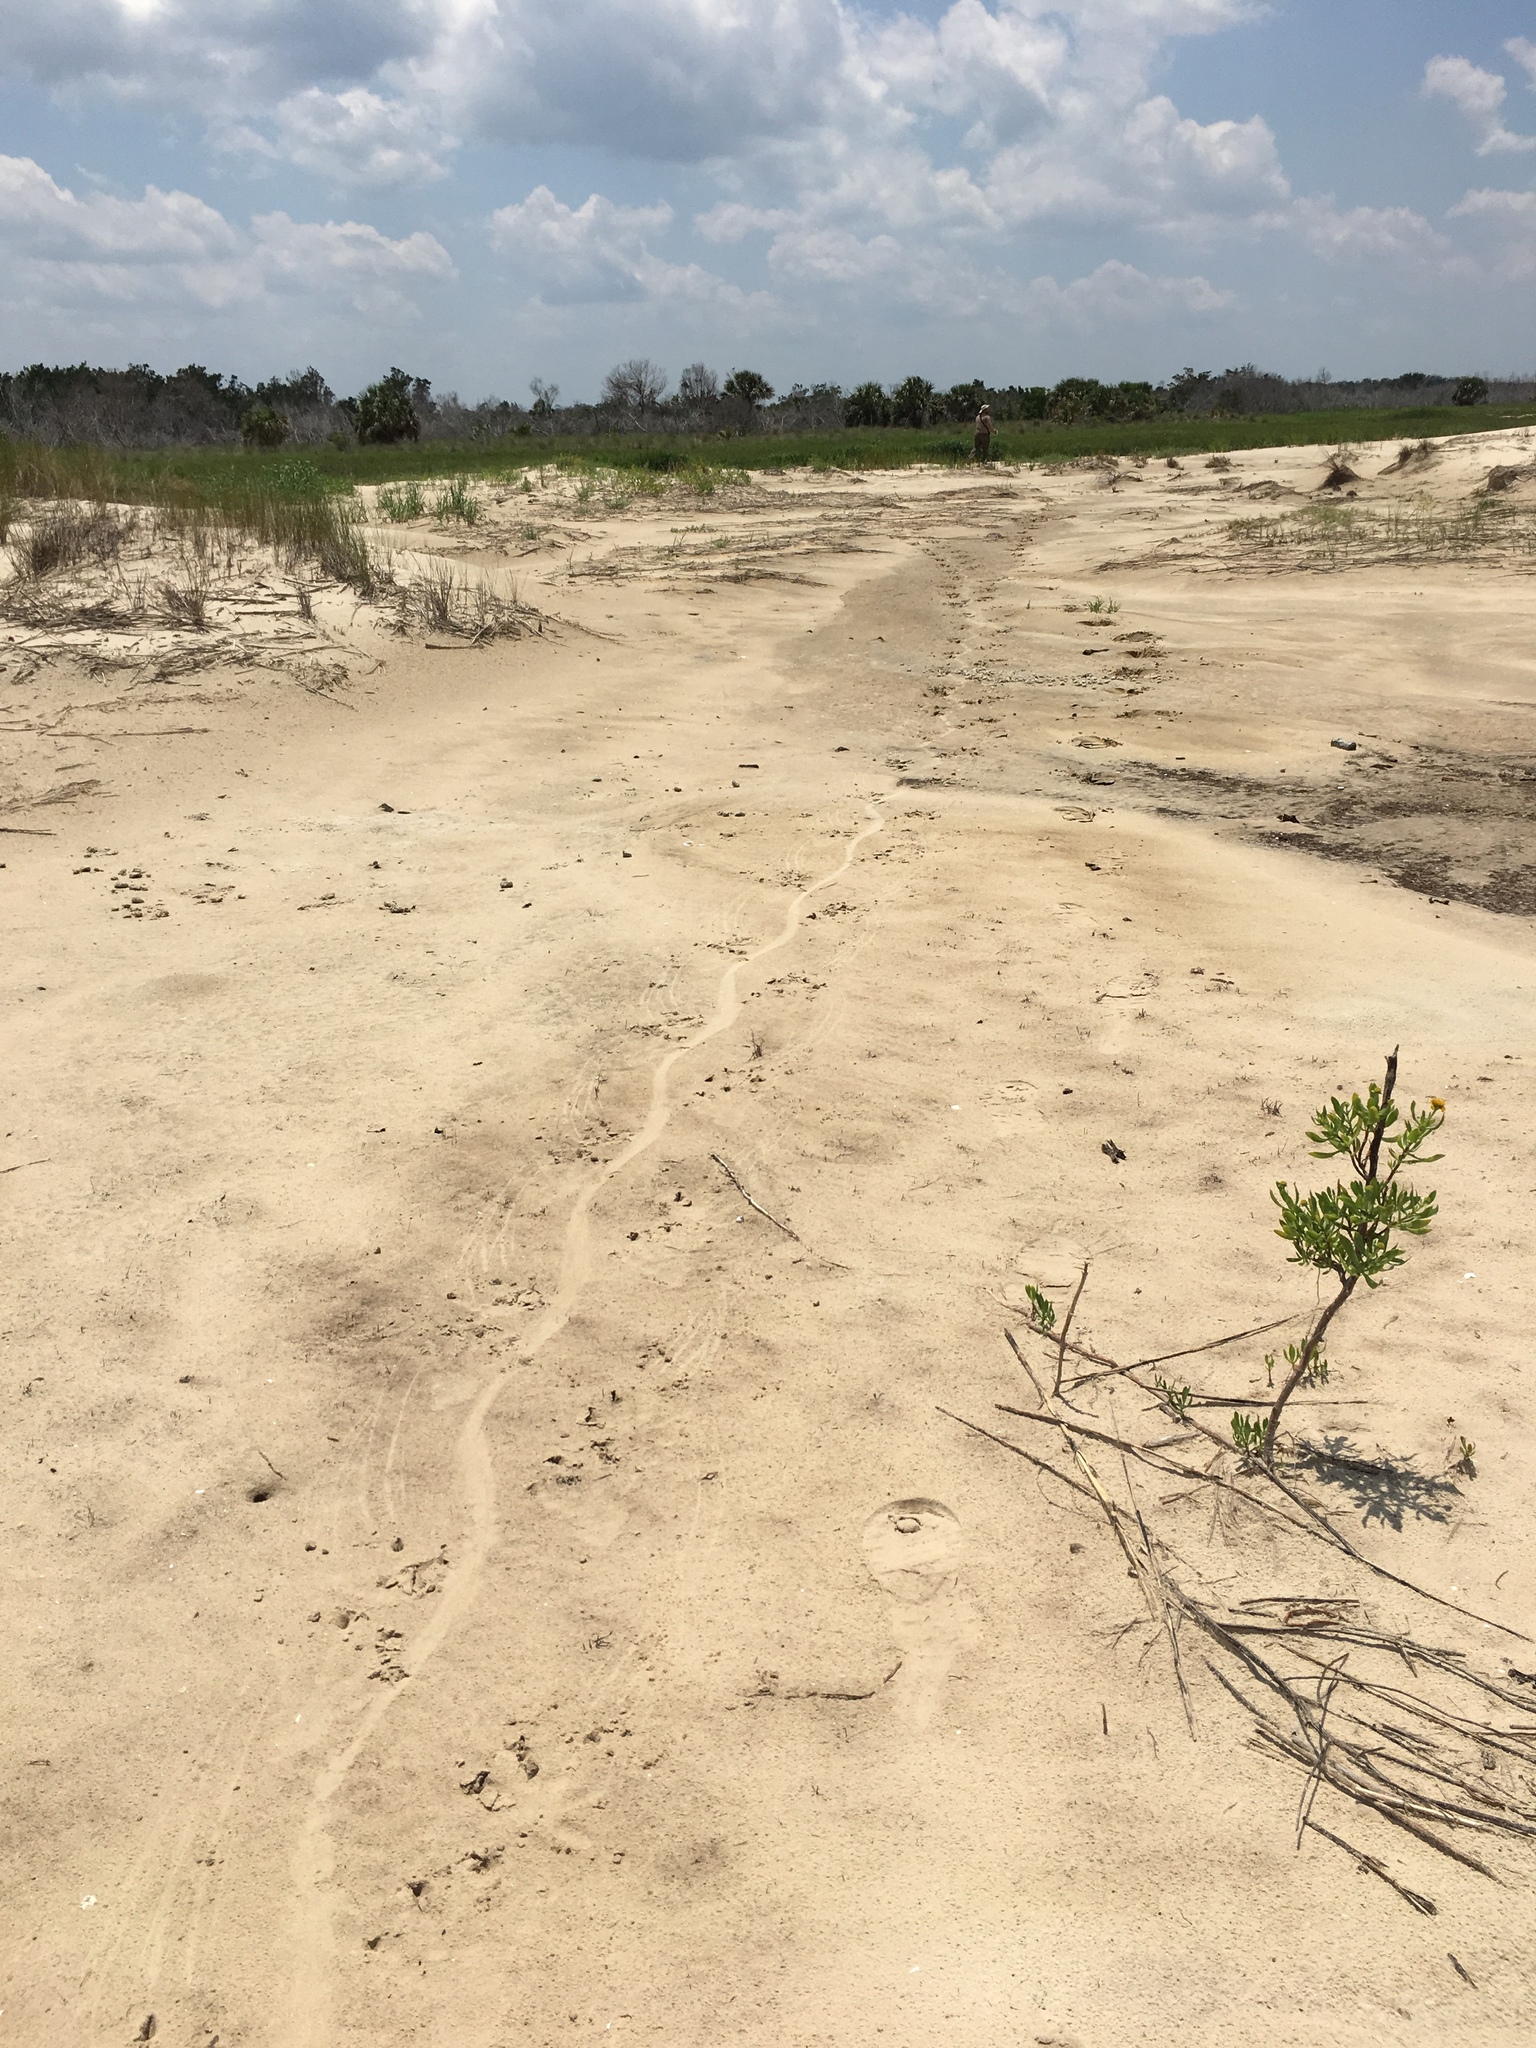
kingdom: Animalia
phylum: Chordata
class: Crocodylia
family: Alligatoridae
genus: Alligator
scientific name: Alligator mississippiensis
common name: American alligator
